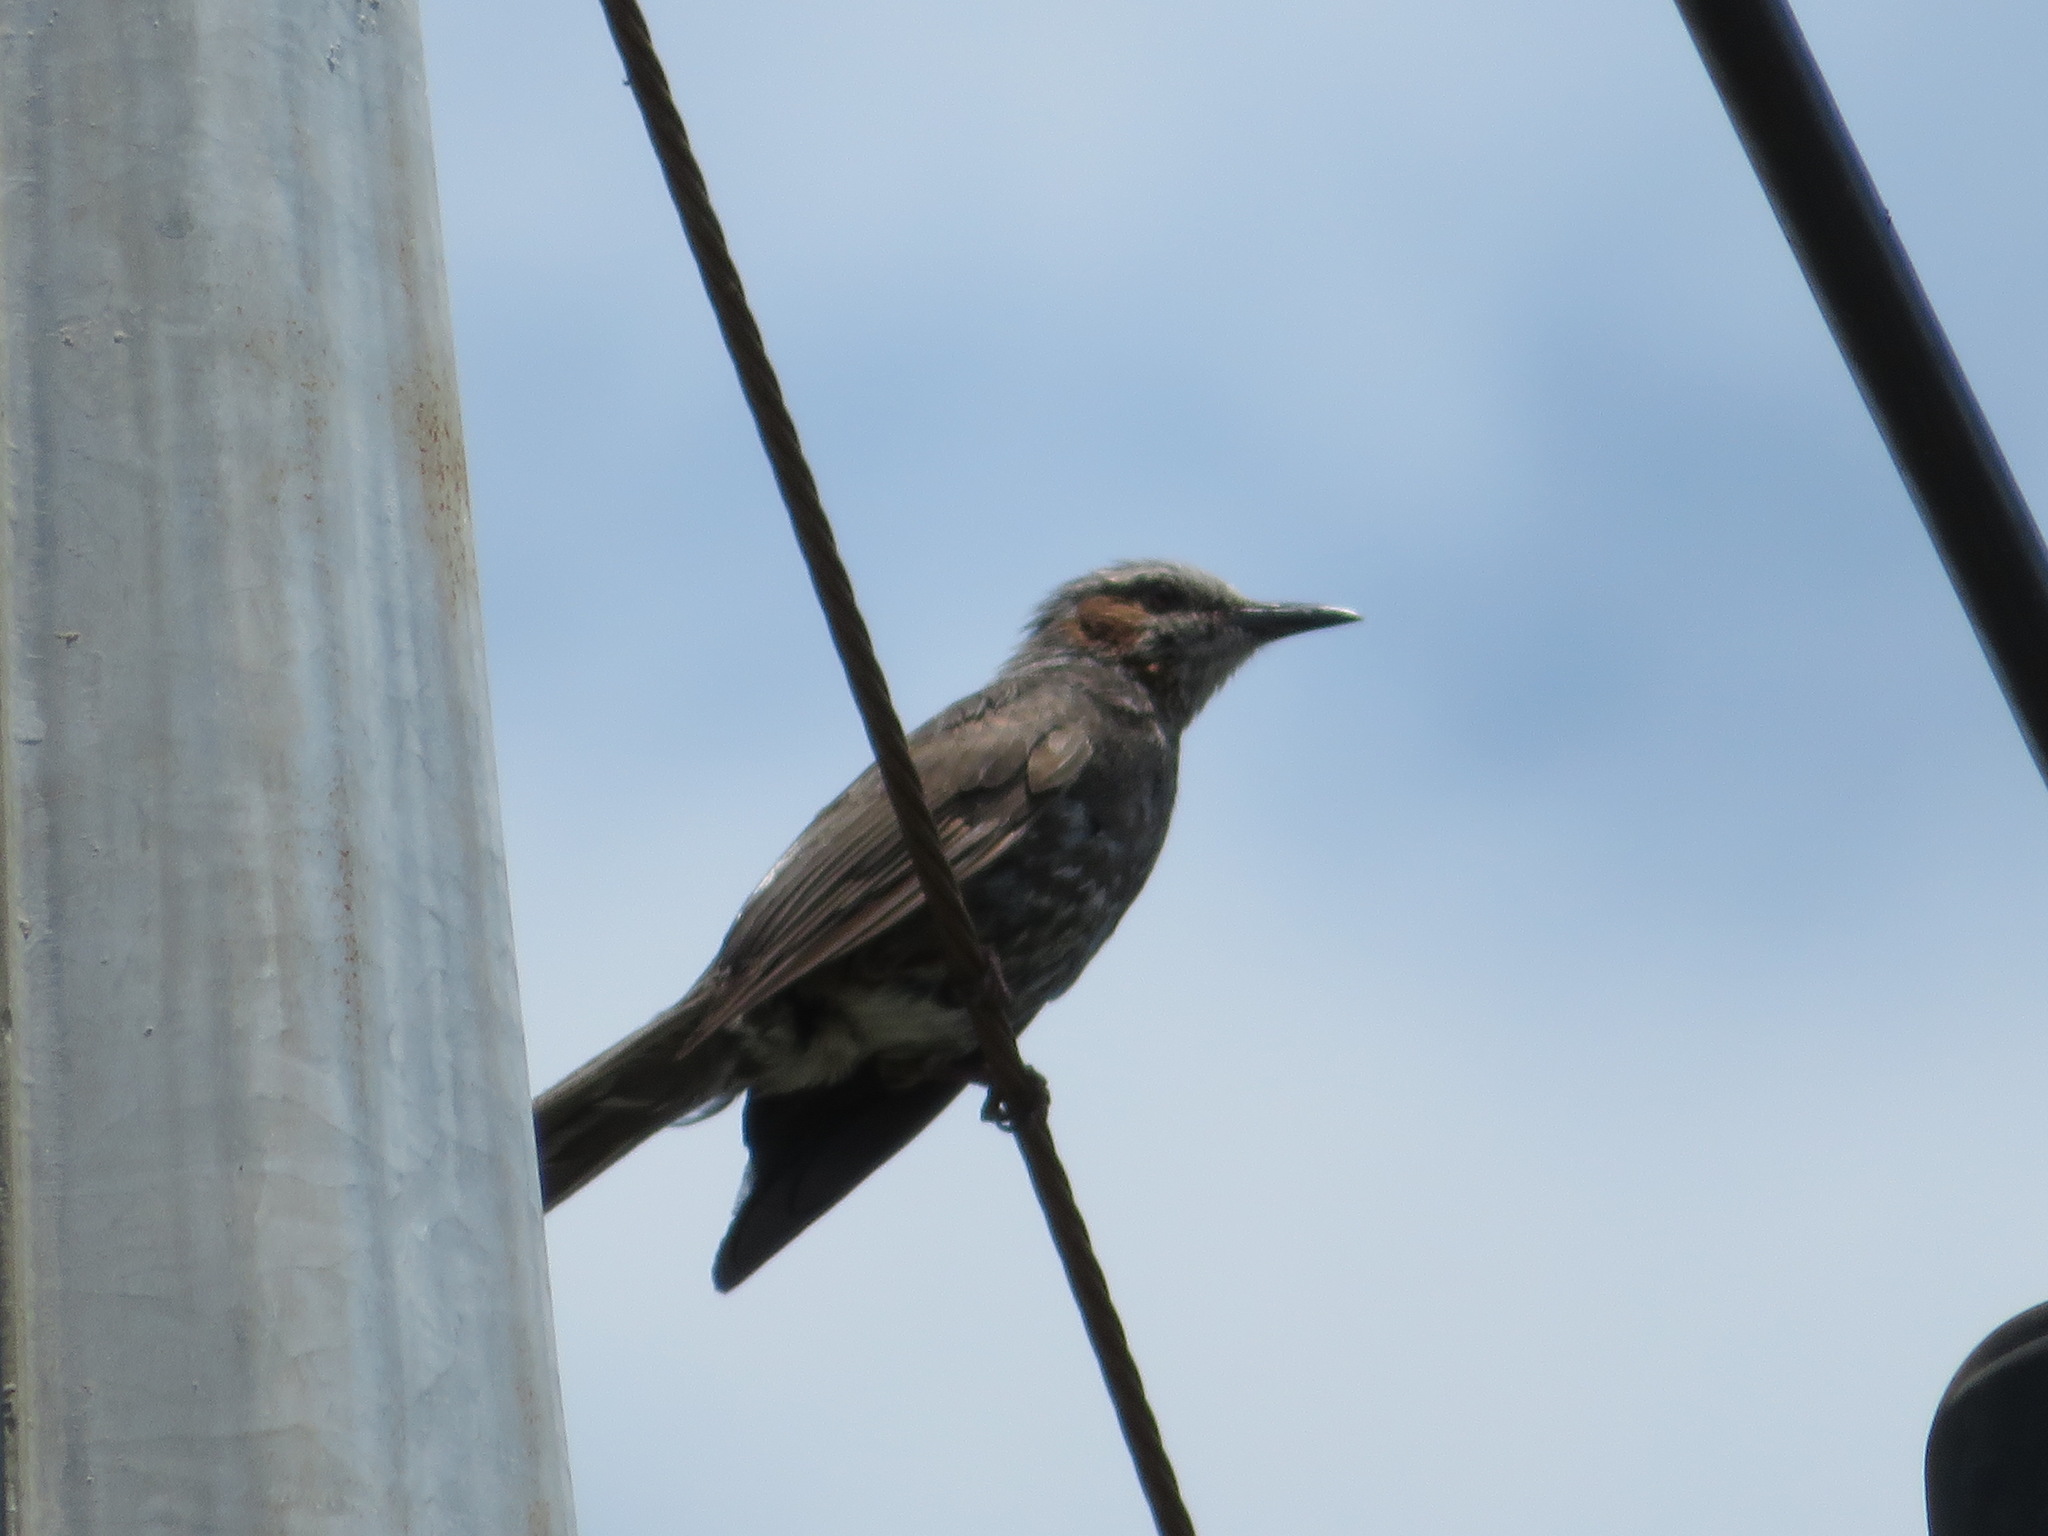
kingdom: Animalia
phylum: Chordata
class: Aves
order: Passeriformes
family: Pycnonotidae
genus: Hypsipetes
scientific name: Hypsipetes amaurotis
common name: Brown-eared bulbul
